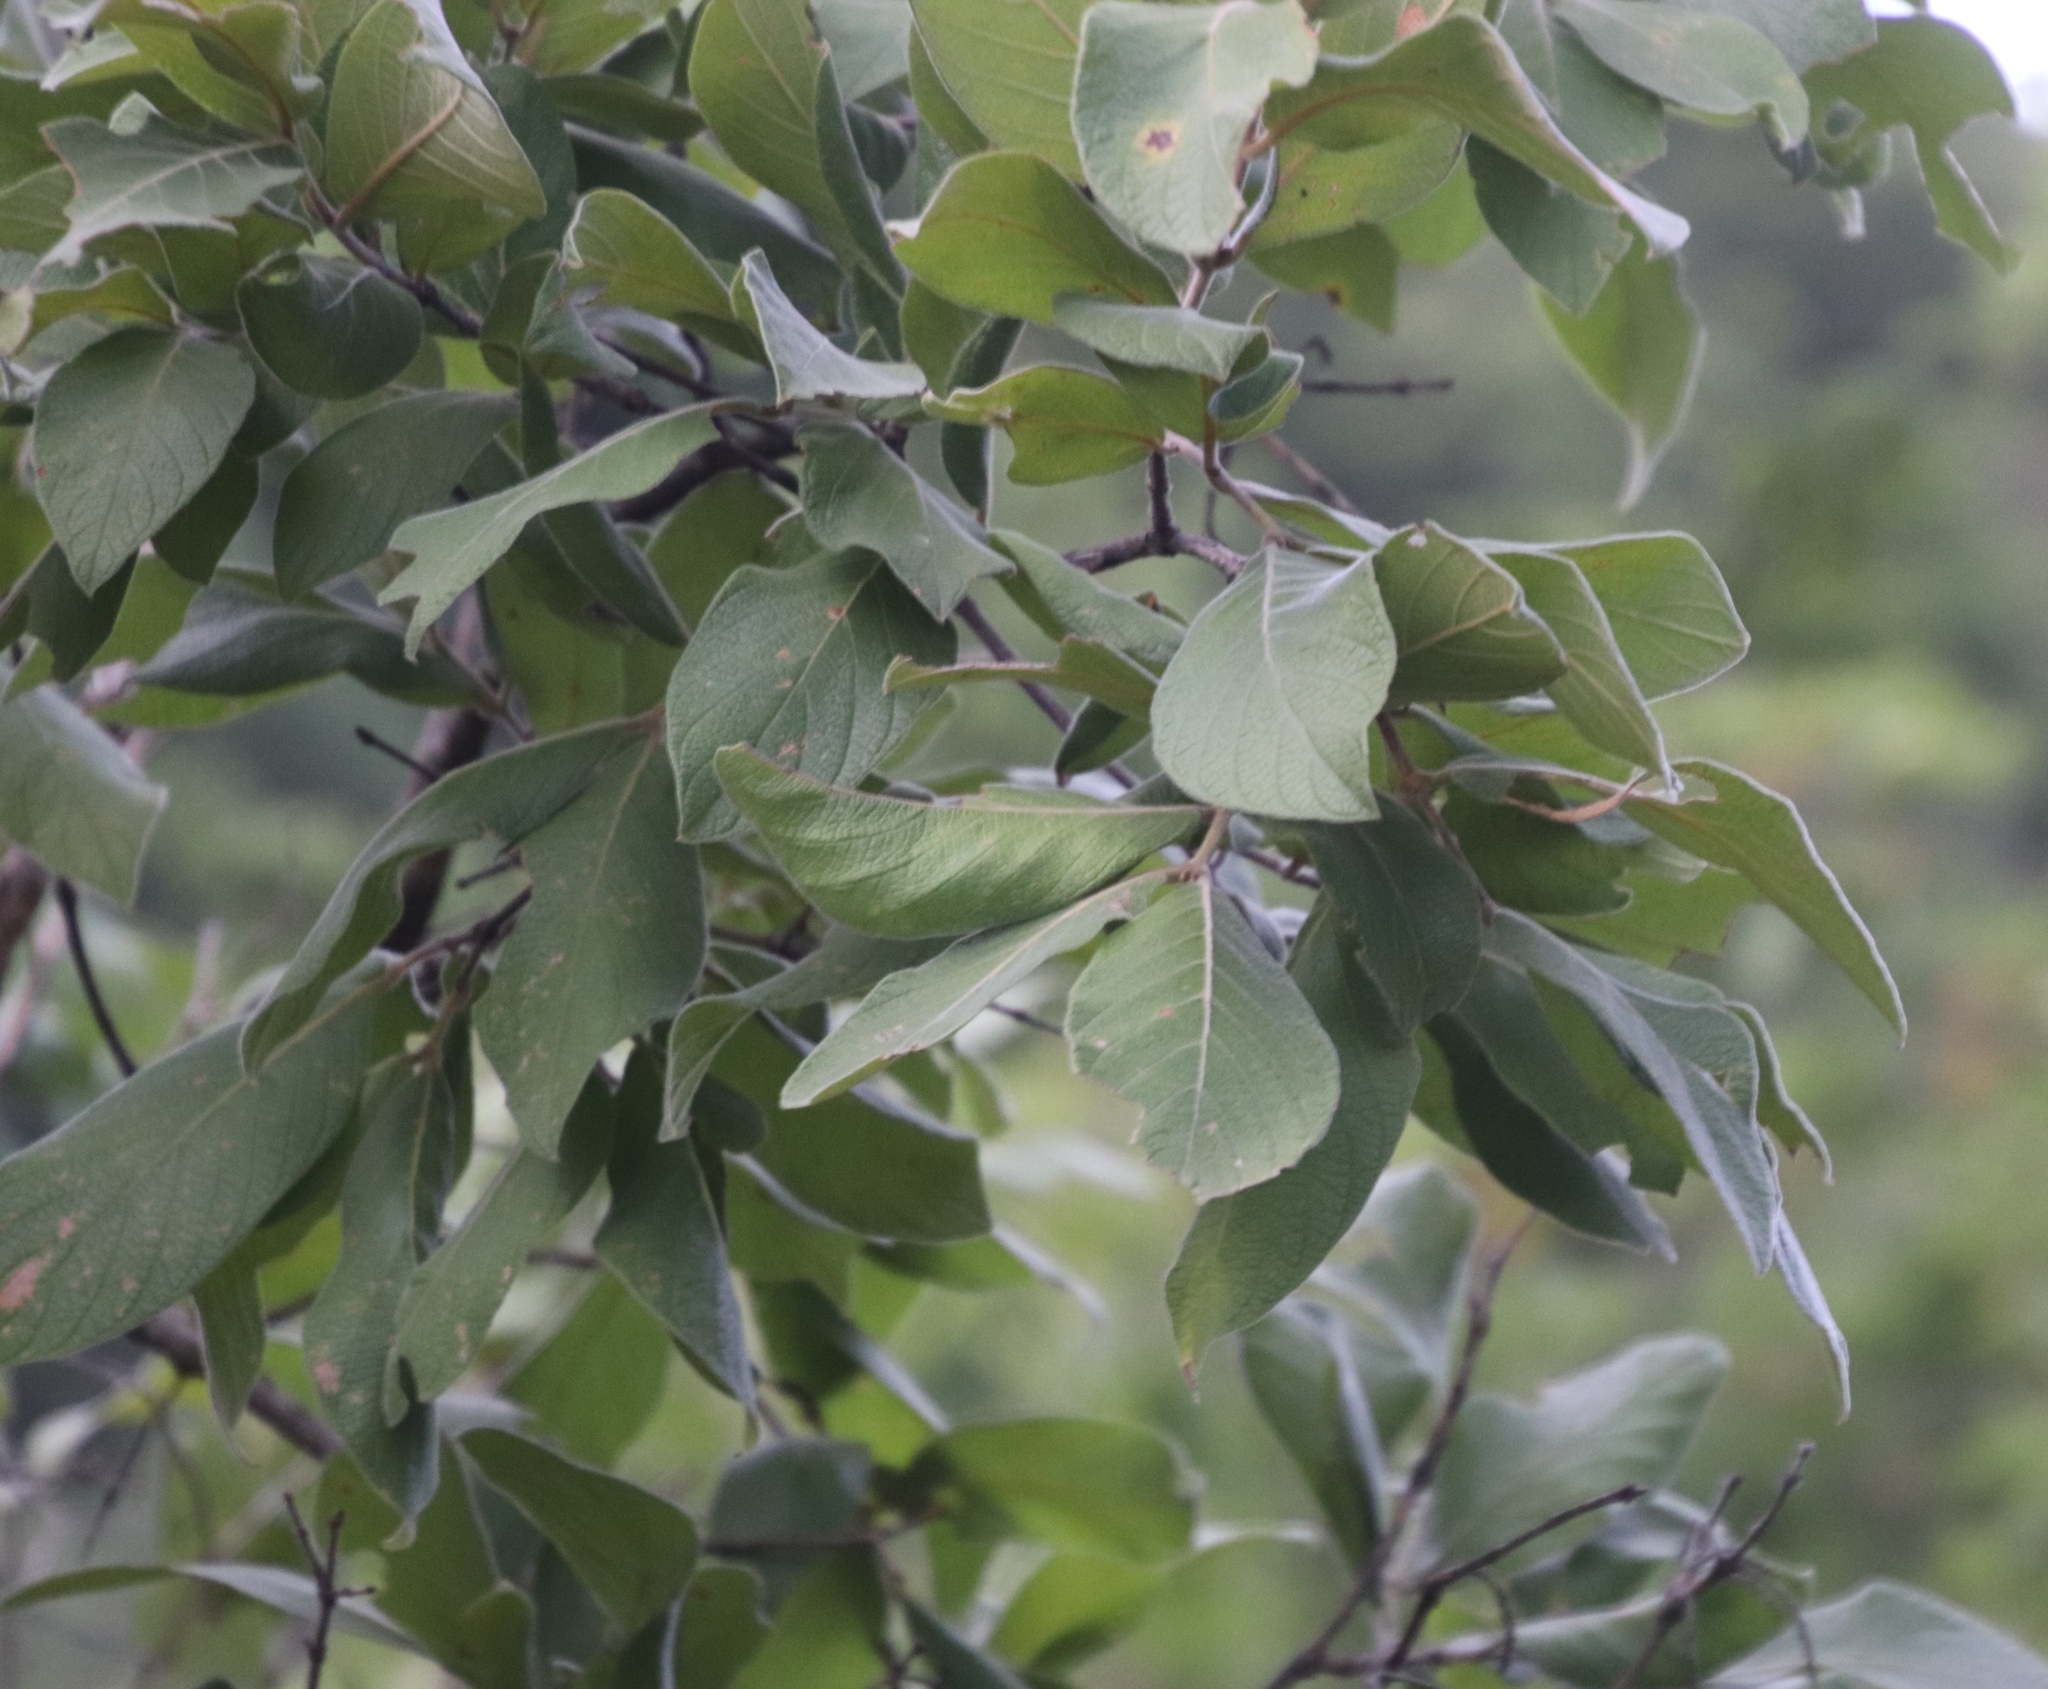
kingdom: Plantae
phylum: Tracheophyta
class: Magnoliopsida
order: Myrtales
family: Combretaceae
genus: Combretum
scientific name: Combretum molle
